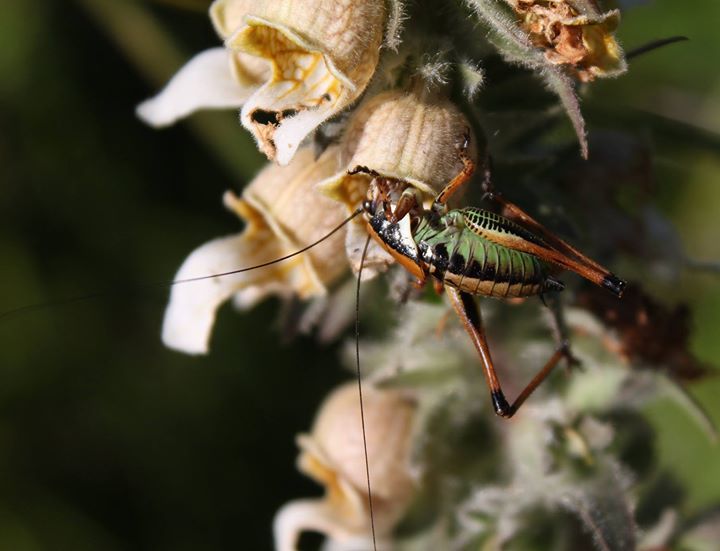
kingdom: Plantae
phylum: Tracheophyta
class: Magnoliopsida
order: Lamiales
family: Plantaginaceae
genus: Digitalis
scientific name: Digitalis lanata
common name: Grecian foxglove
